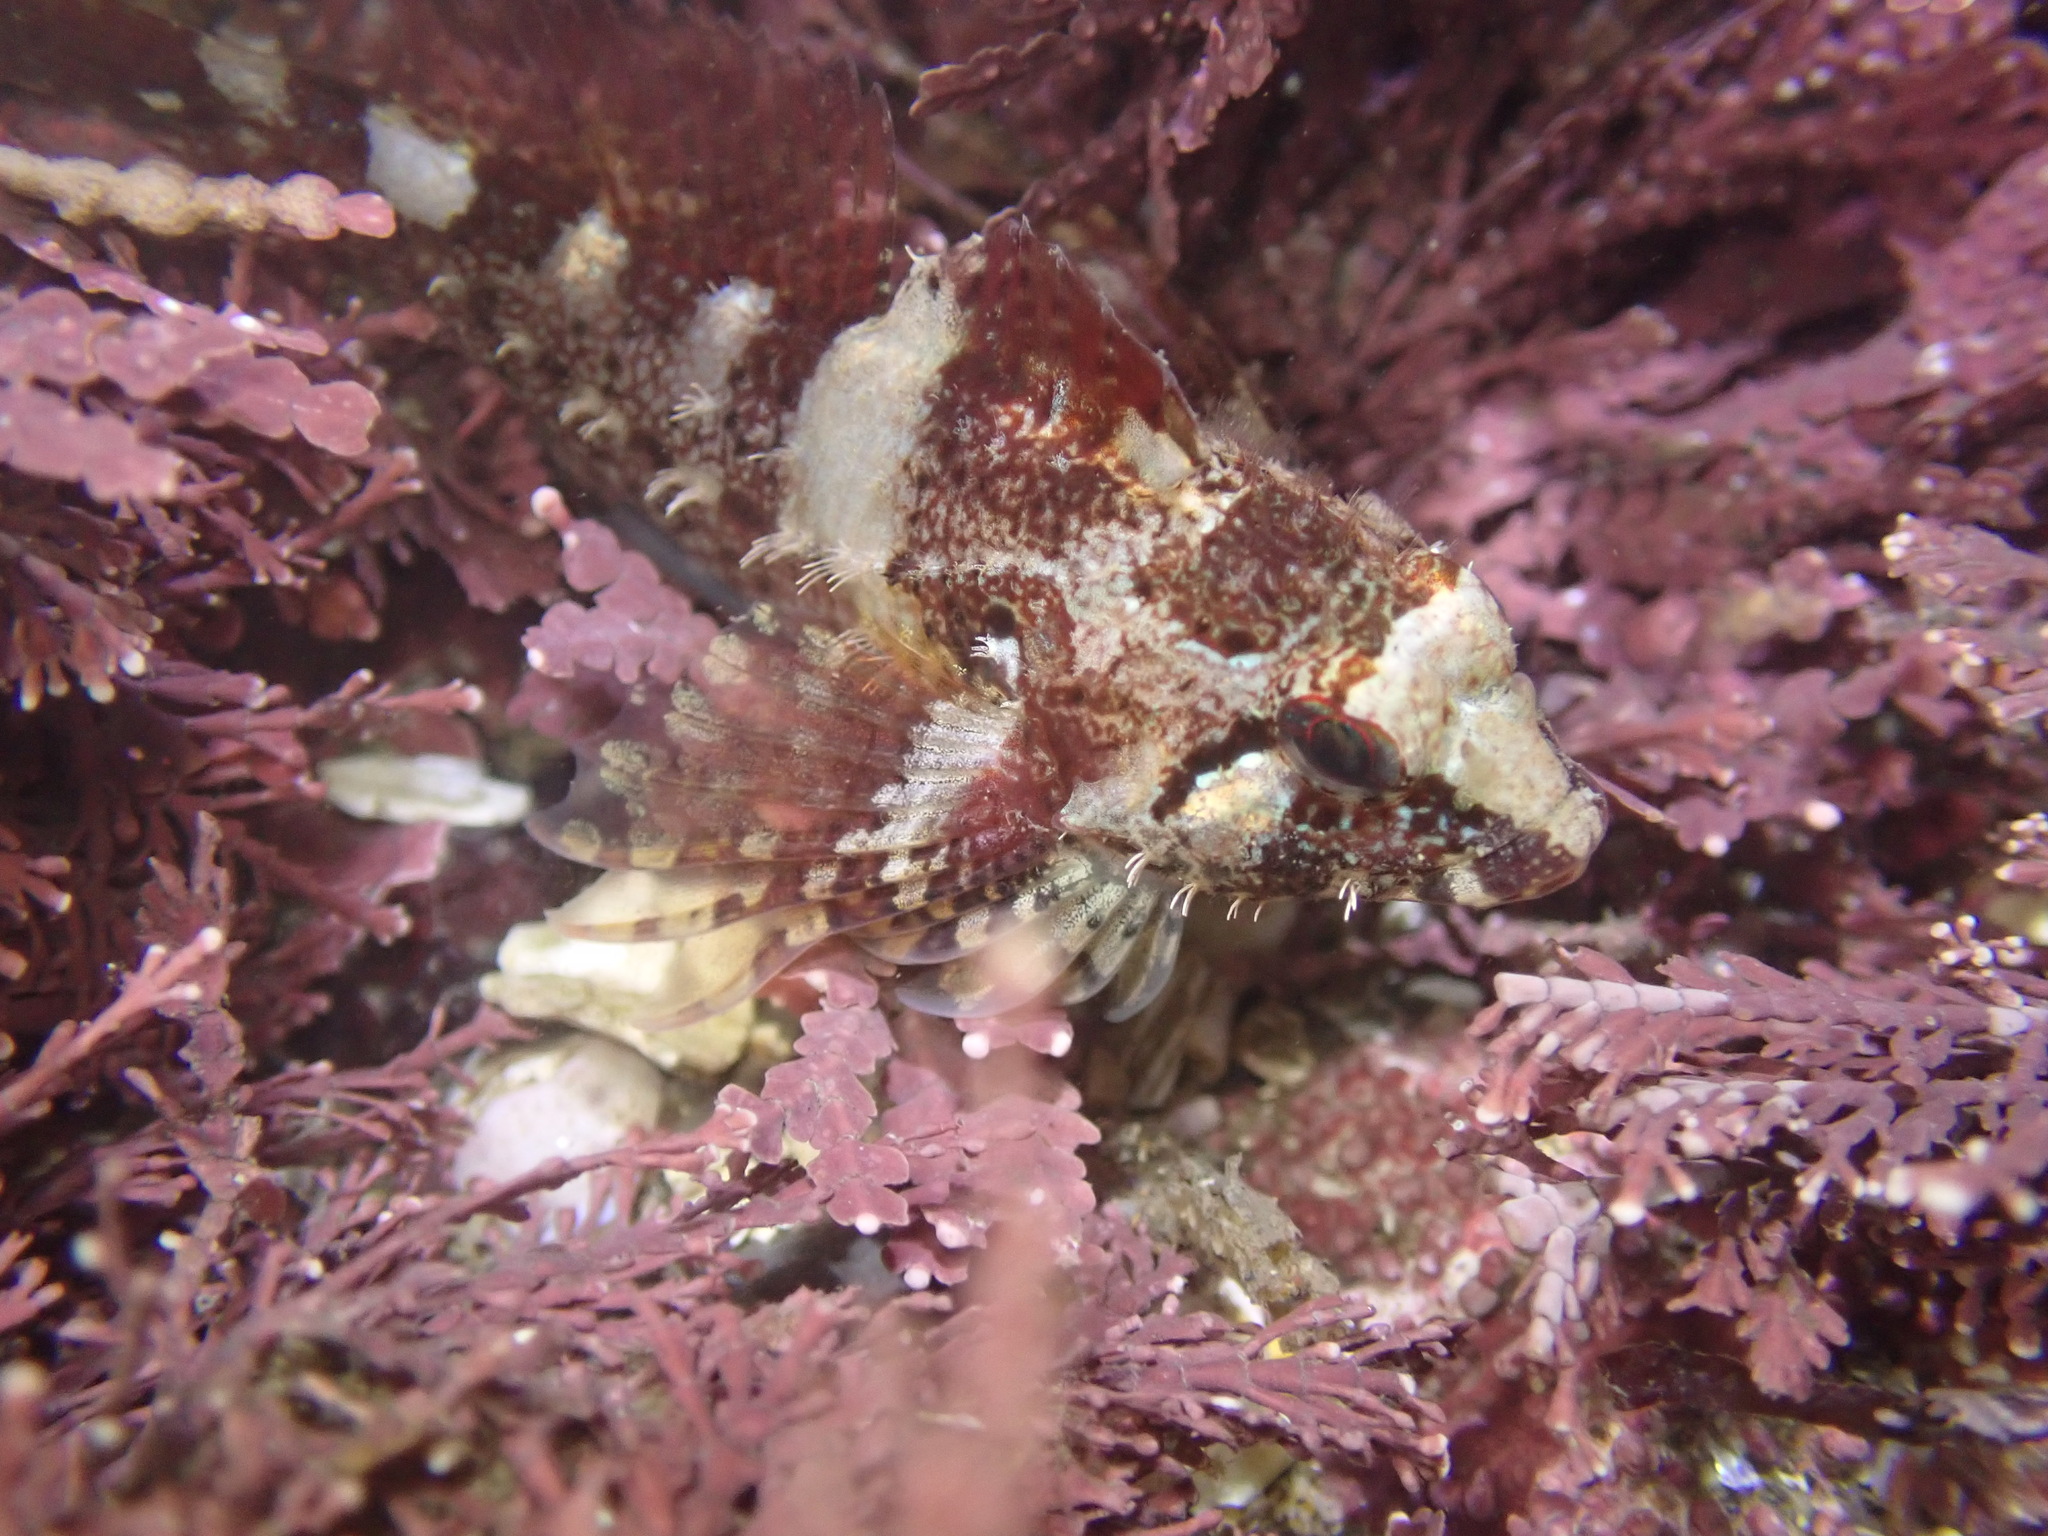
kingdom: Animalia
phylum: Chordata
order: Scorpaeniformes
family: Cottidae
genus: Oligocottus
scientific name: Oligocottus rubellio
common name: Rosy sculpin
